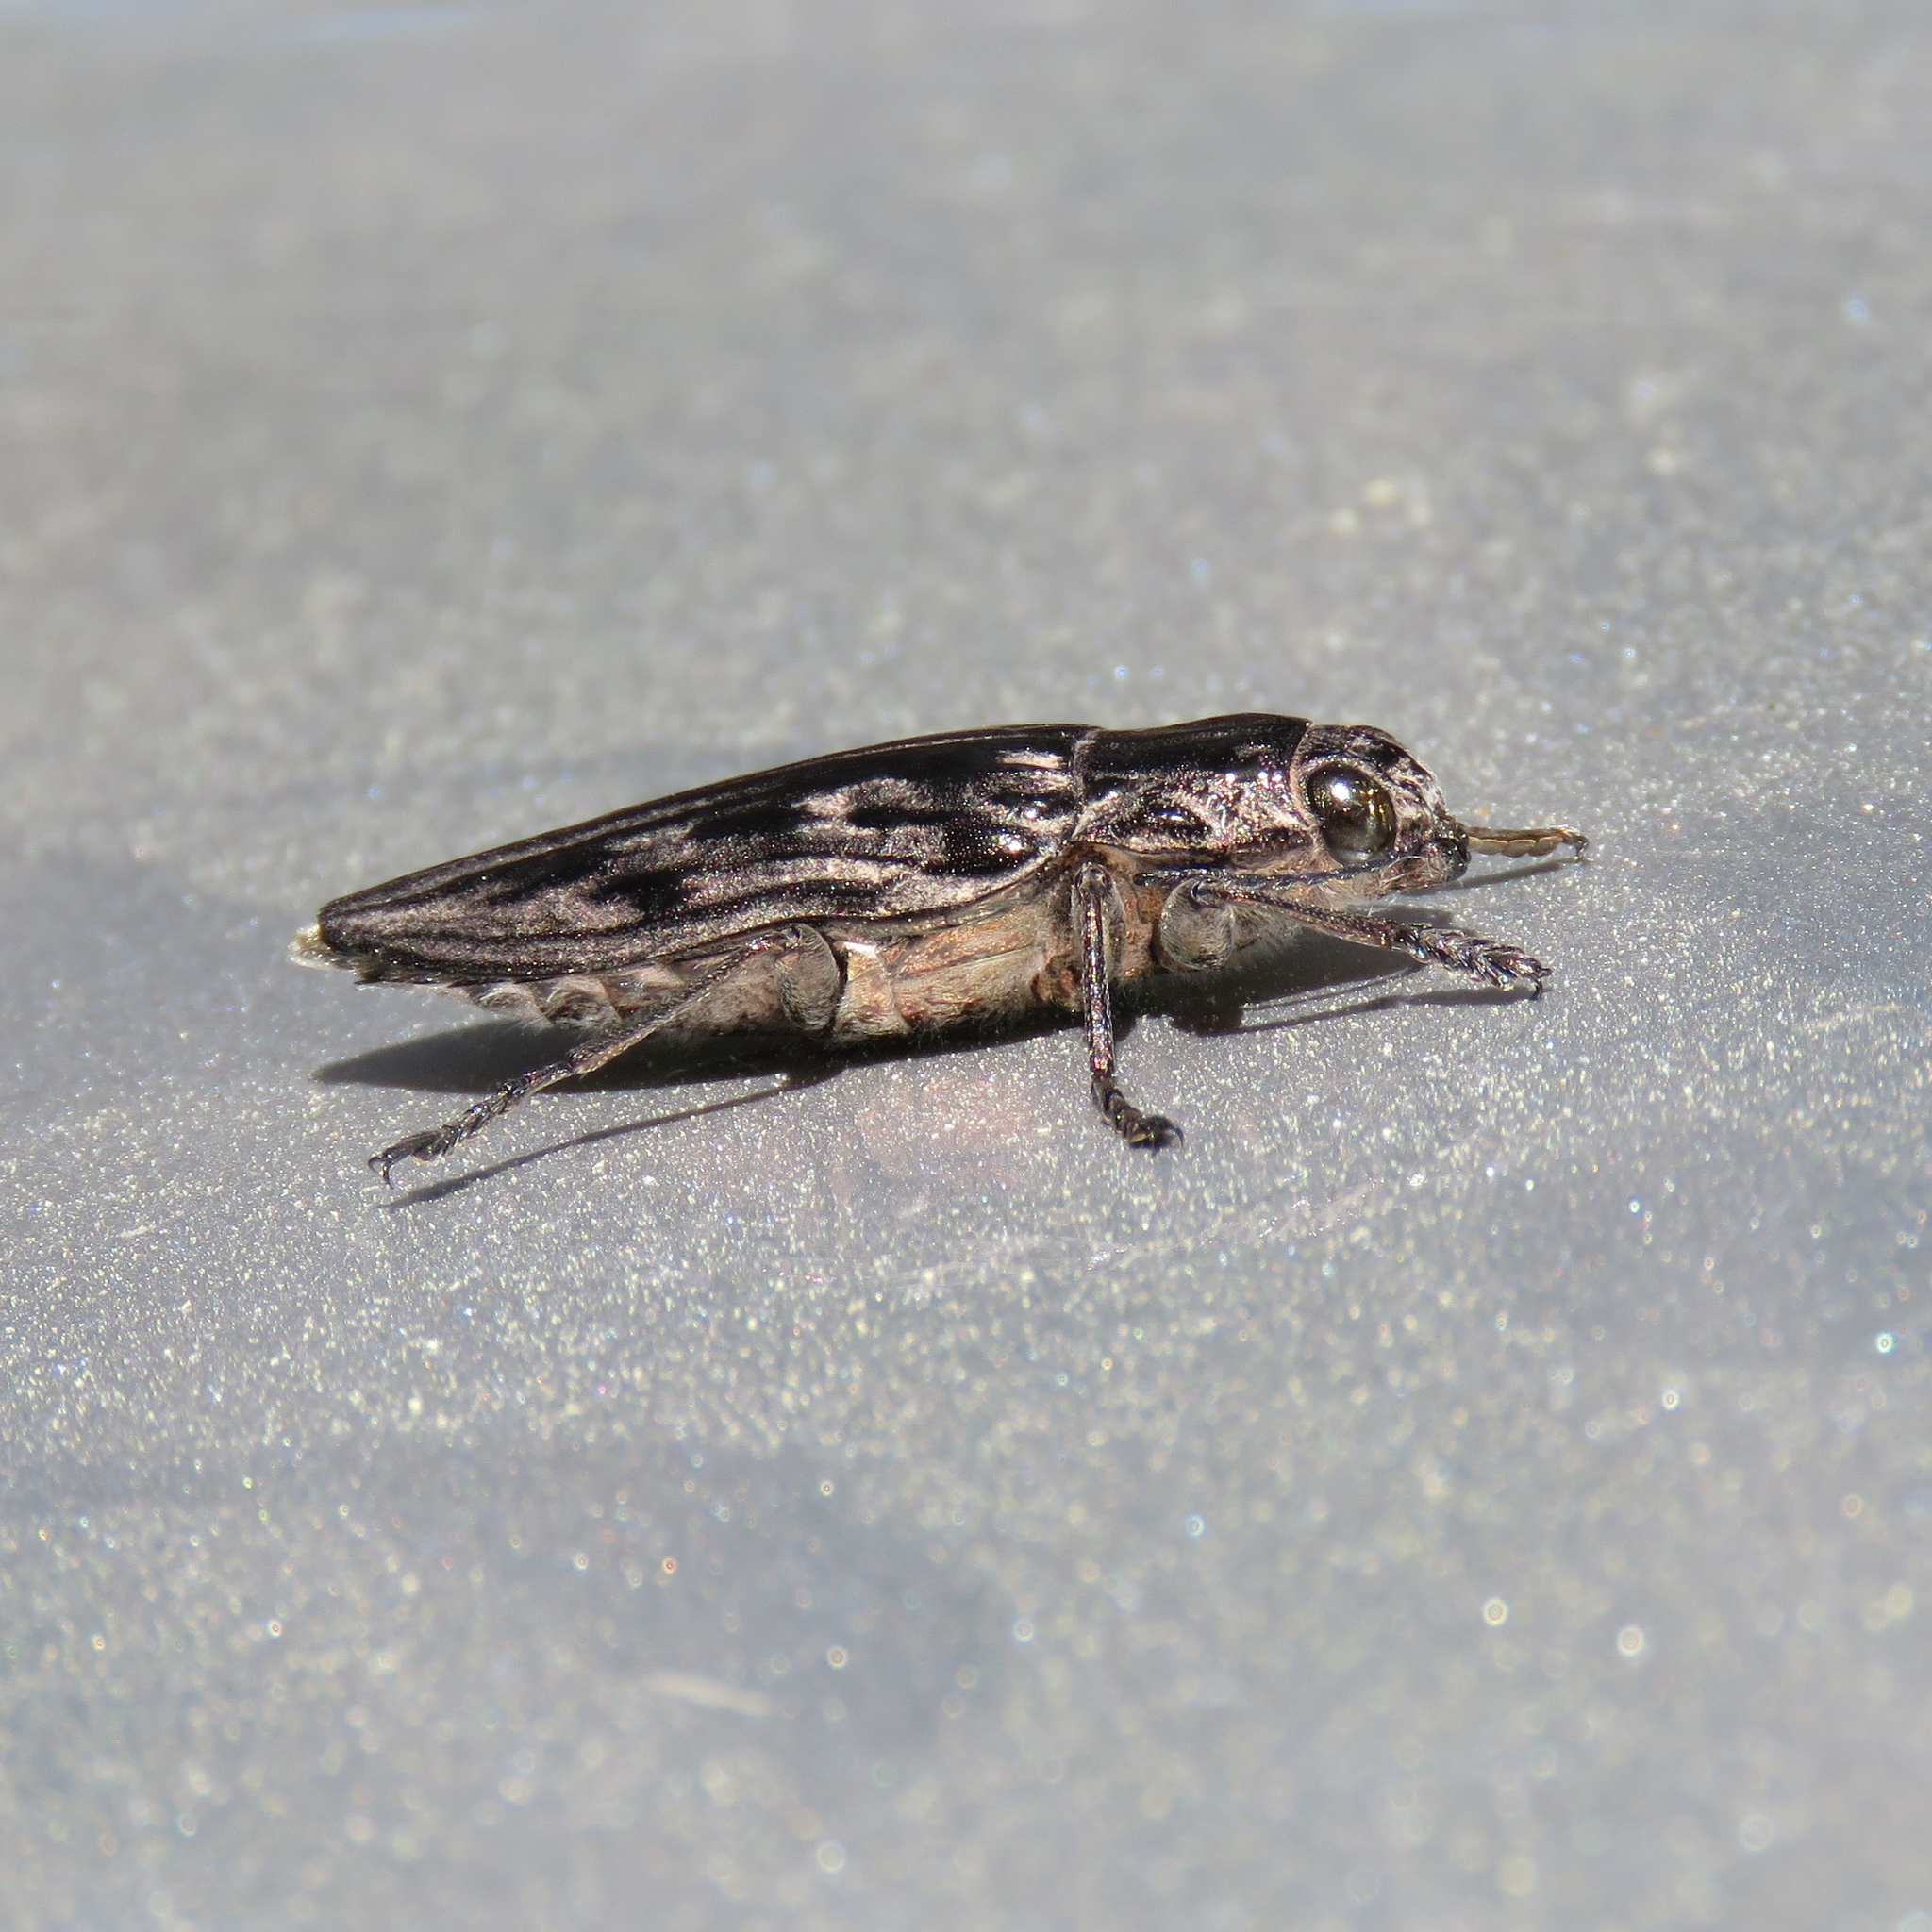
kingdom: Animalia
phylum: Arthropoda
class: Insecta
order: Coleoptera
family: Buprestidae
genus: Chalcophora
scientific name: Chalcophora virginiensis
